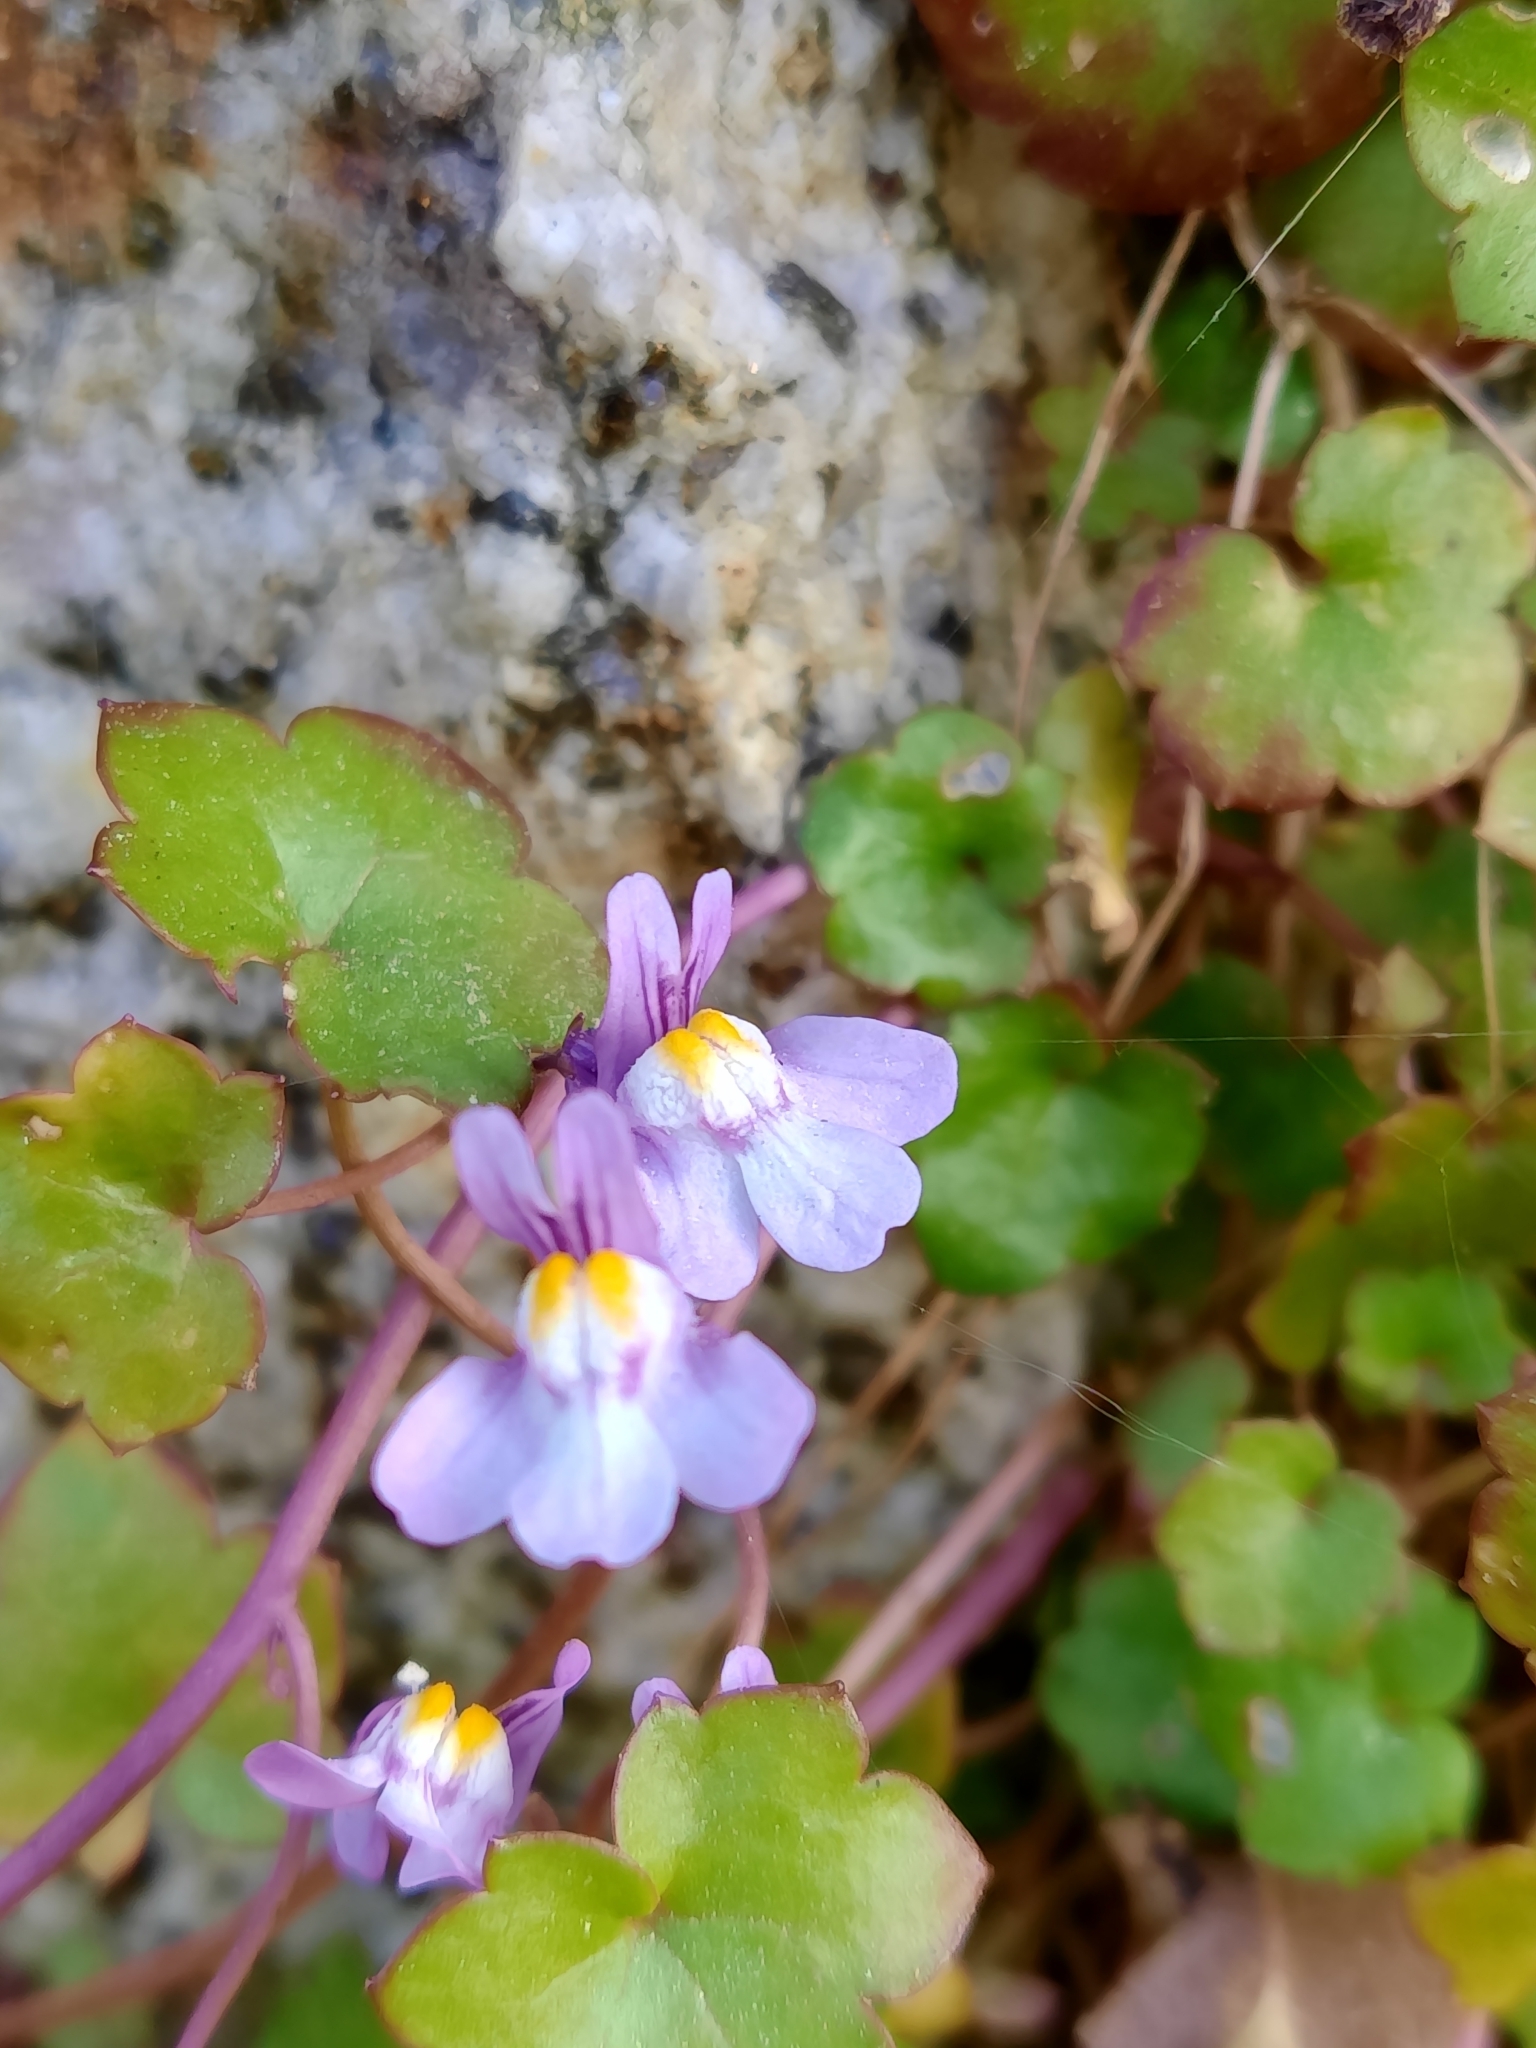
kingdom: Plantae
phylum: Tracheophyta
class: Magnoliopsida
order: Lamiales
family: Plantaginaceae
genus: Cymbalaria
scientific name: Cymbalaria muralis
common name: Ivy-leaved toadflax
